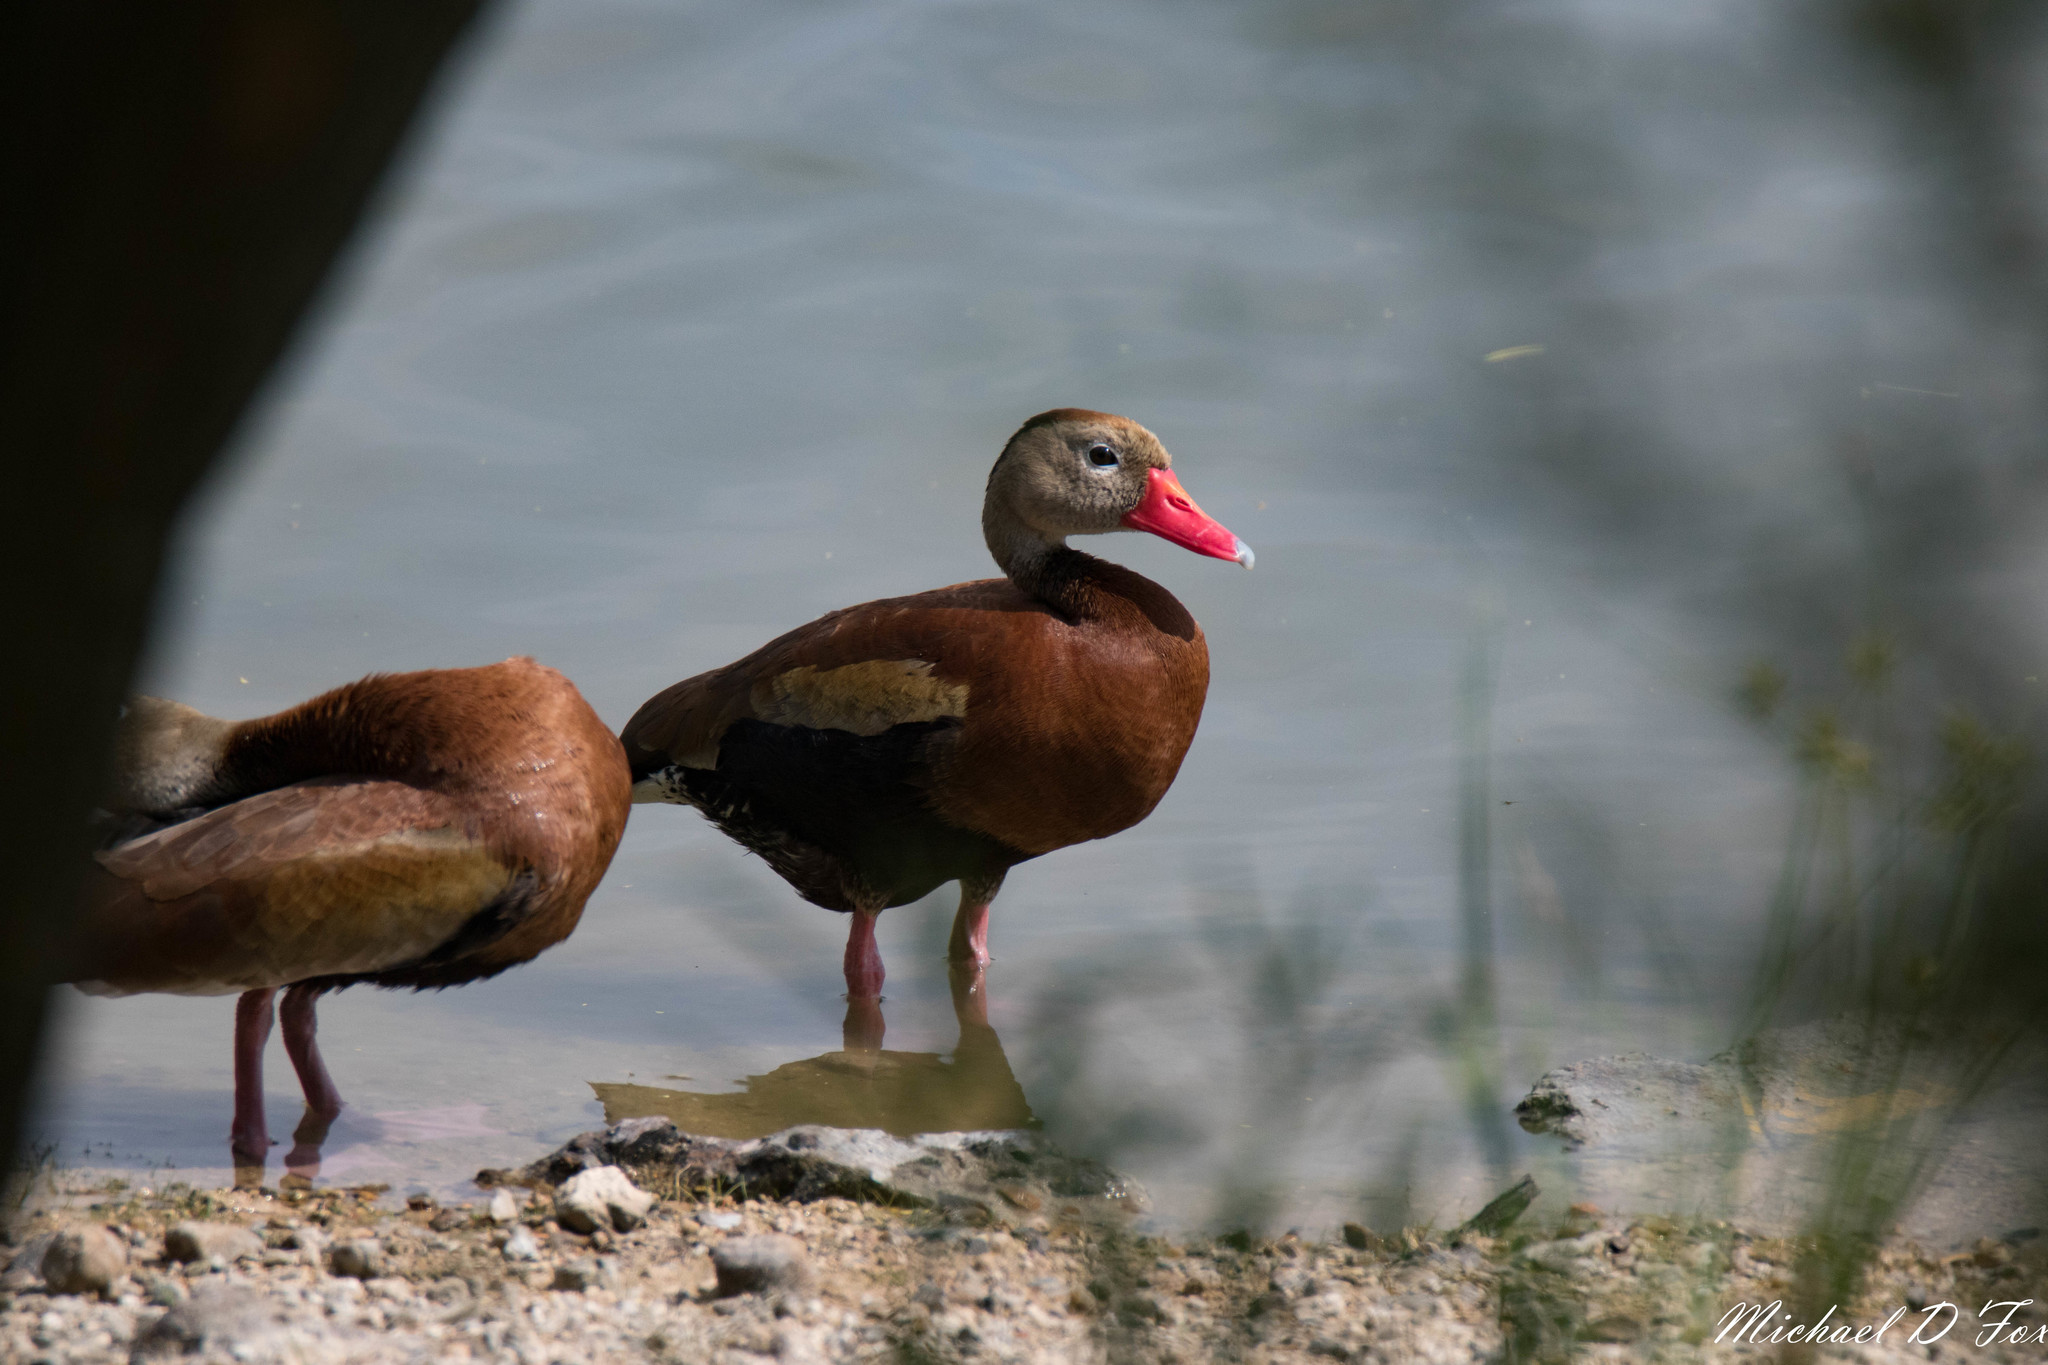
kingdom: Animalia
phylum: Chordata
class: Aves
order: Anseriformes
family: Anatidae
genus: Dendrocygna
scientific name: Dendrocygna autumnalis
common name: Black-bellied whistling duck
